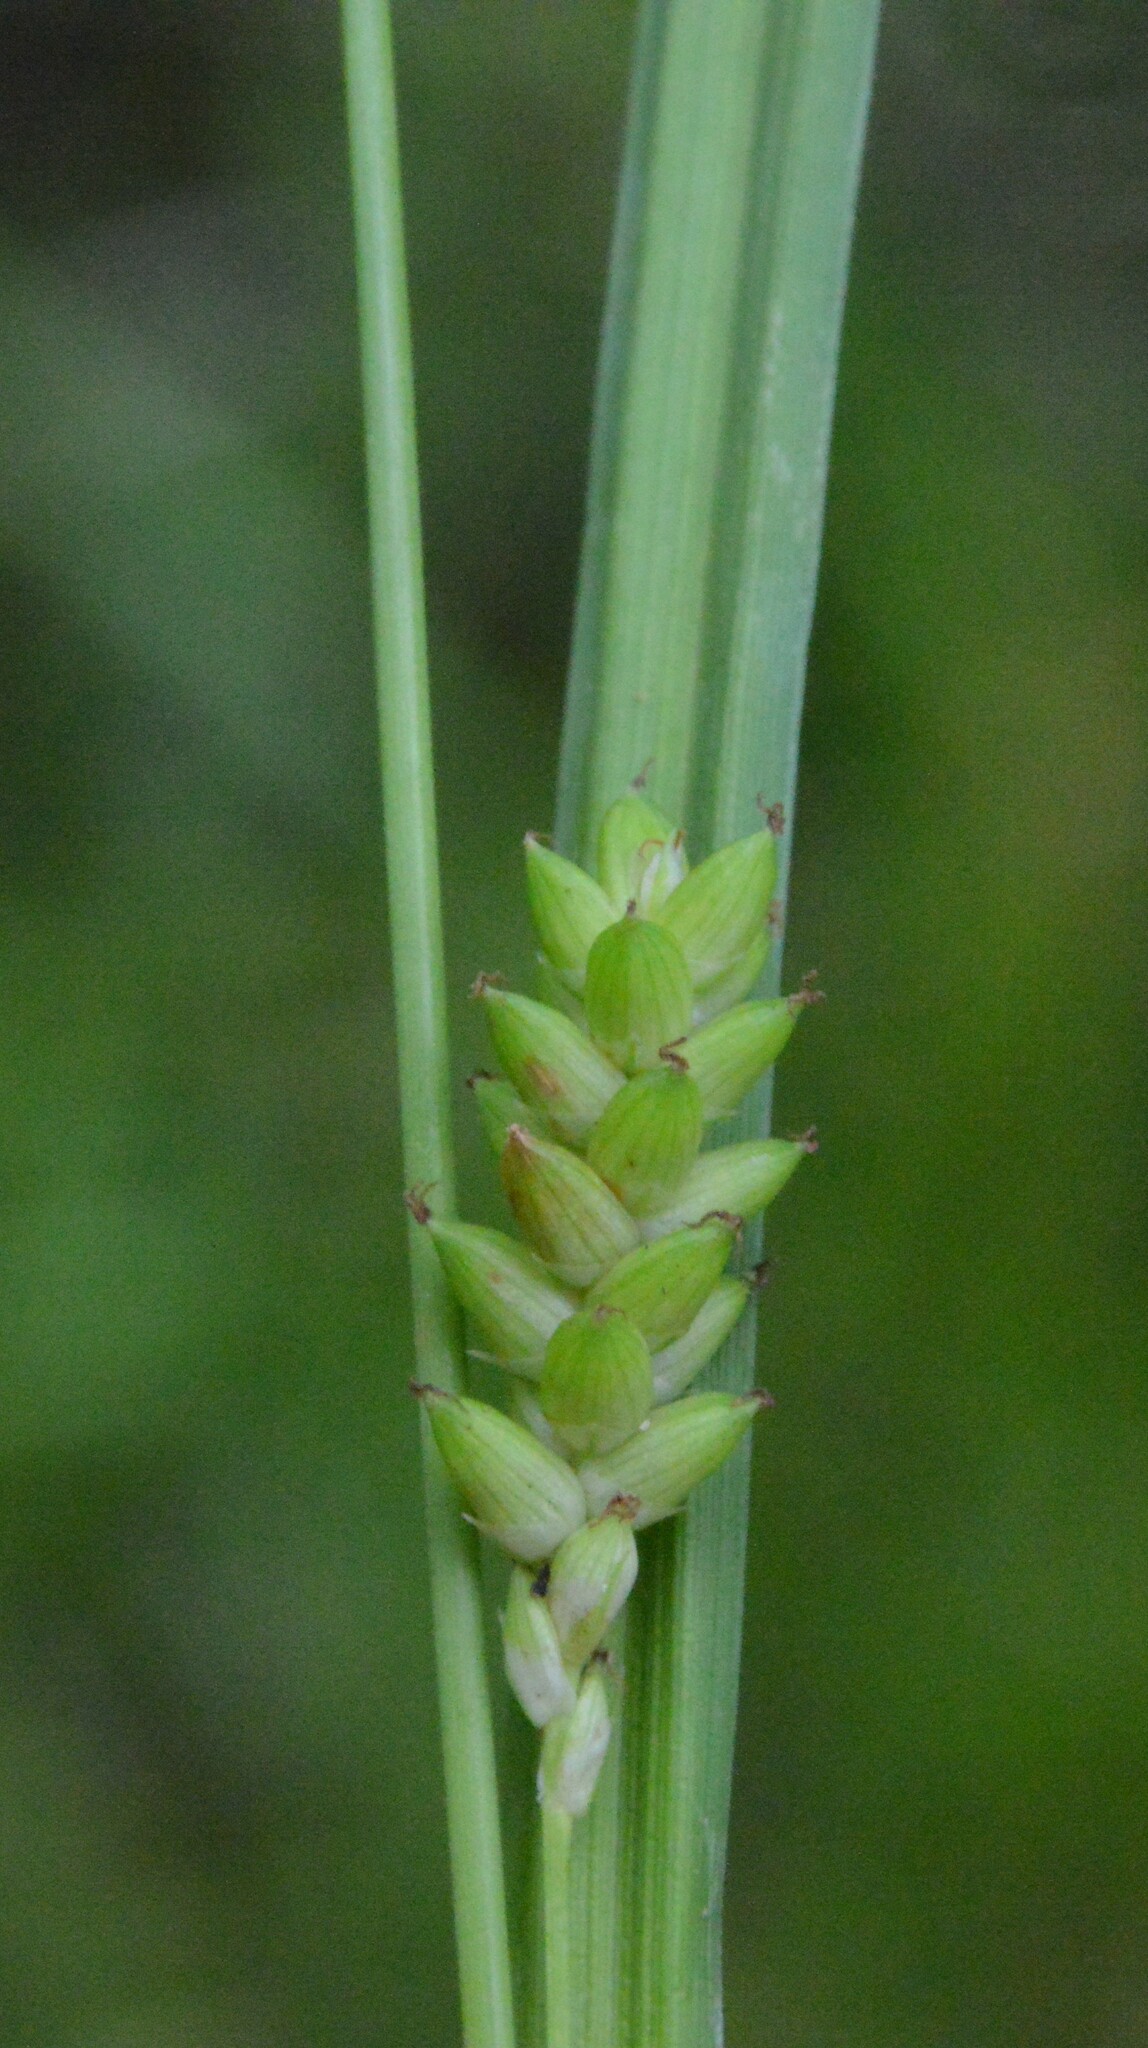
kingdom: Plantae
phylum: Tracheophyta
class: Liliopsida
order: Poales
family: Cyperaceae
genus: Carex
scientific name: Carex flaccosperma
